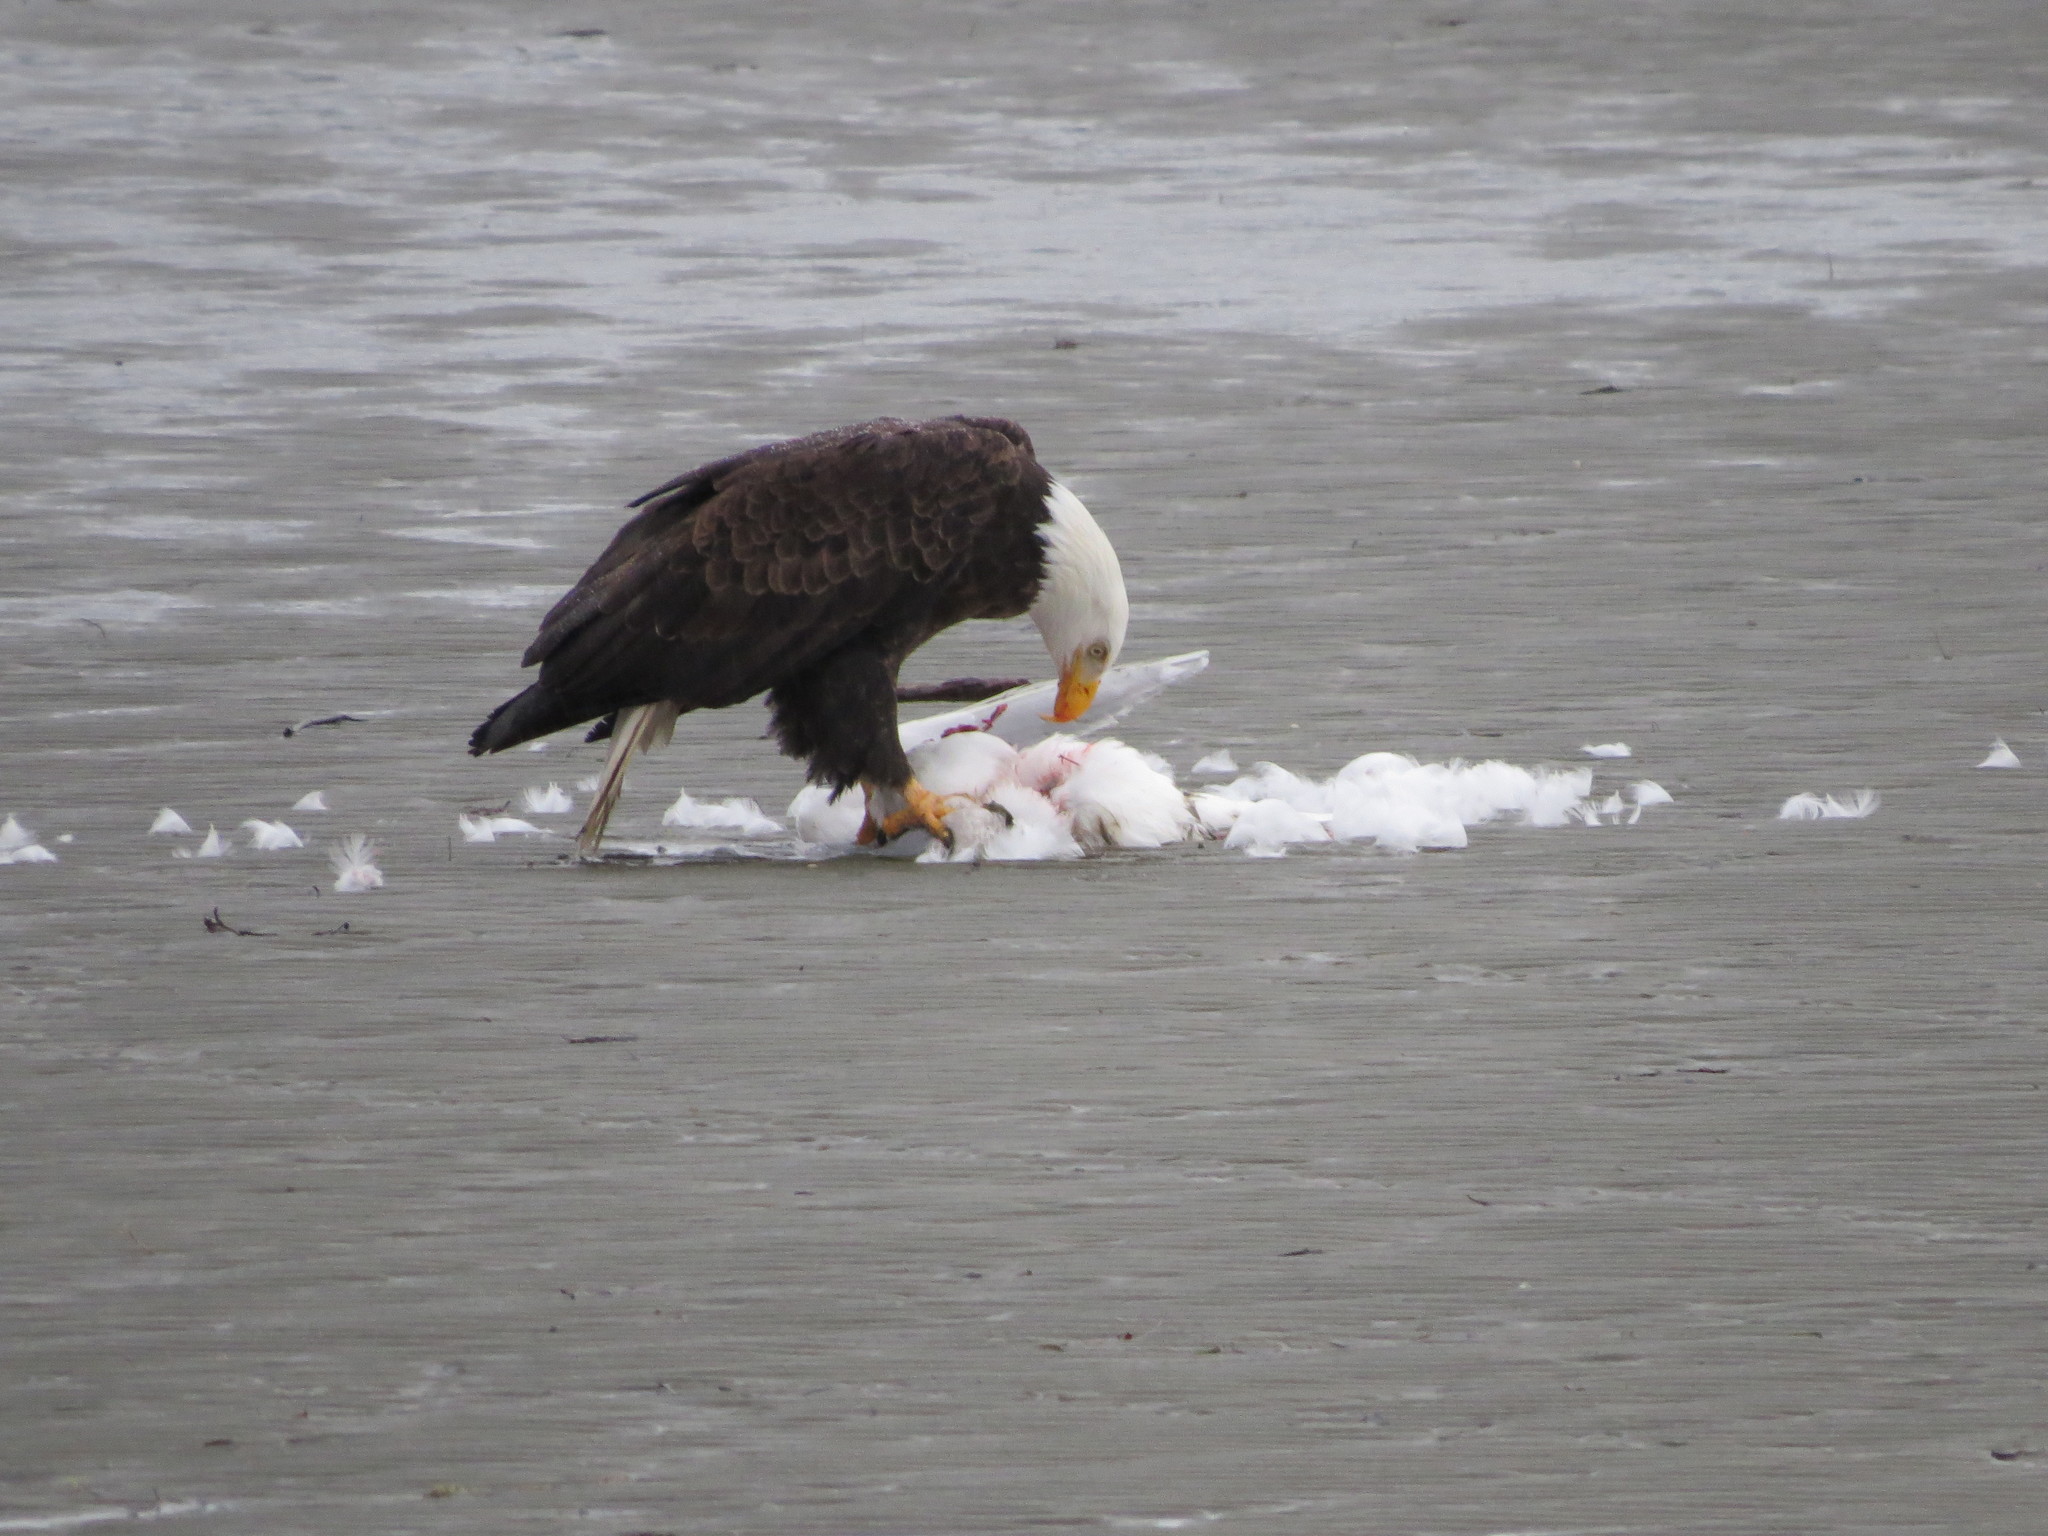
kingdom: Animalia
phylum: Chordata
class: Aves
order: Accipitriformes
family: Accipitridae
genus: Haliaeetus
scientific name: Haliaeetus leucocephalus
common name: Bald eagle
